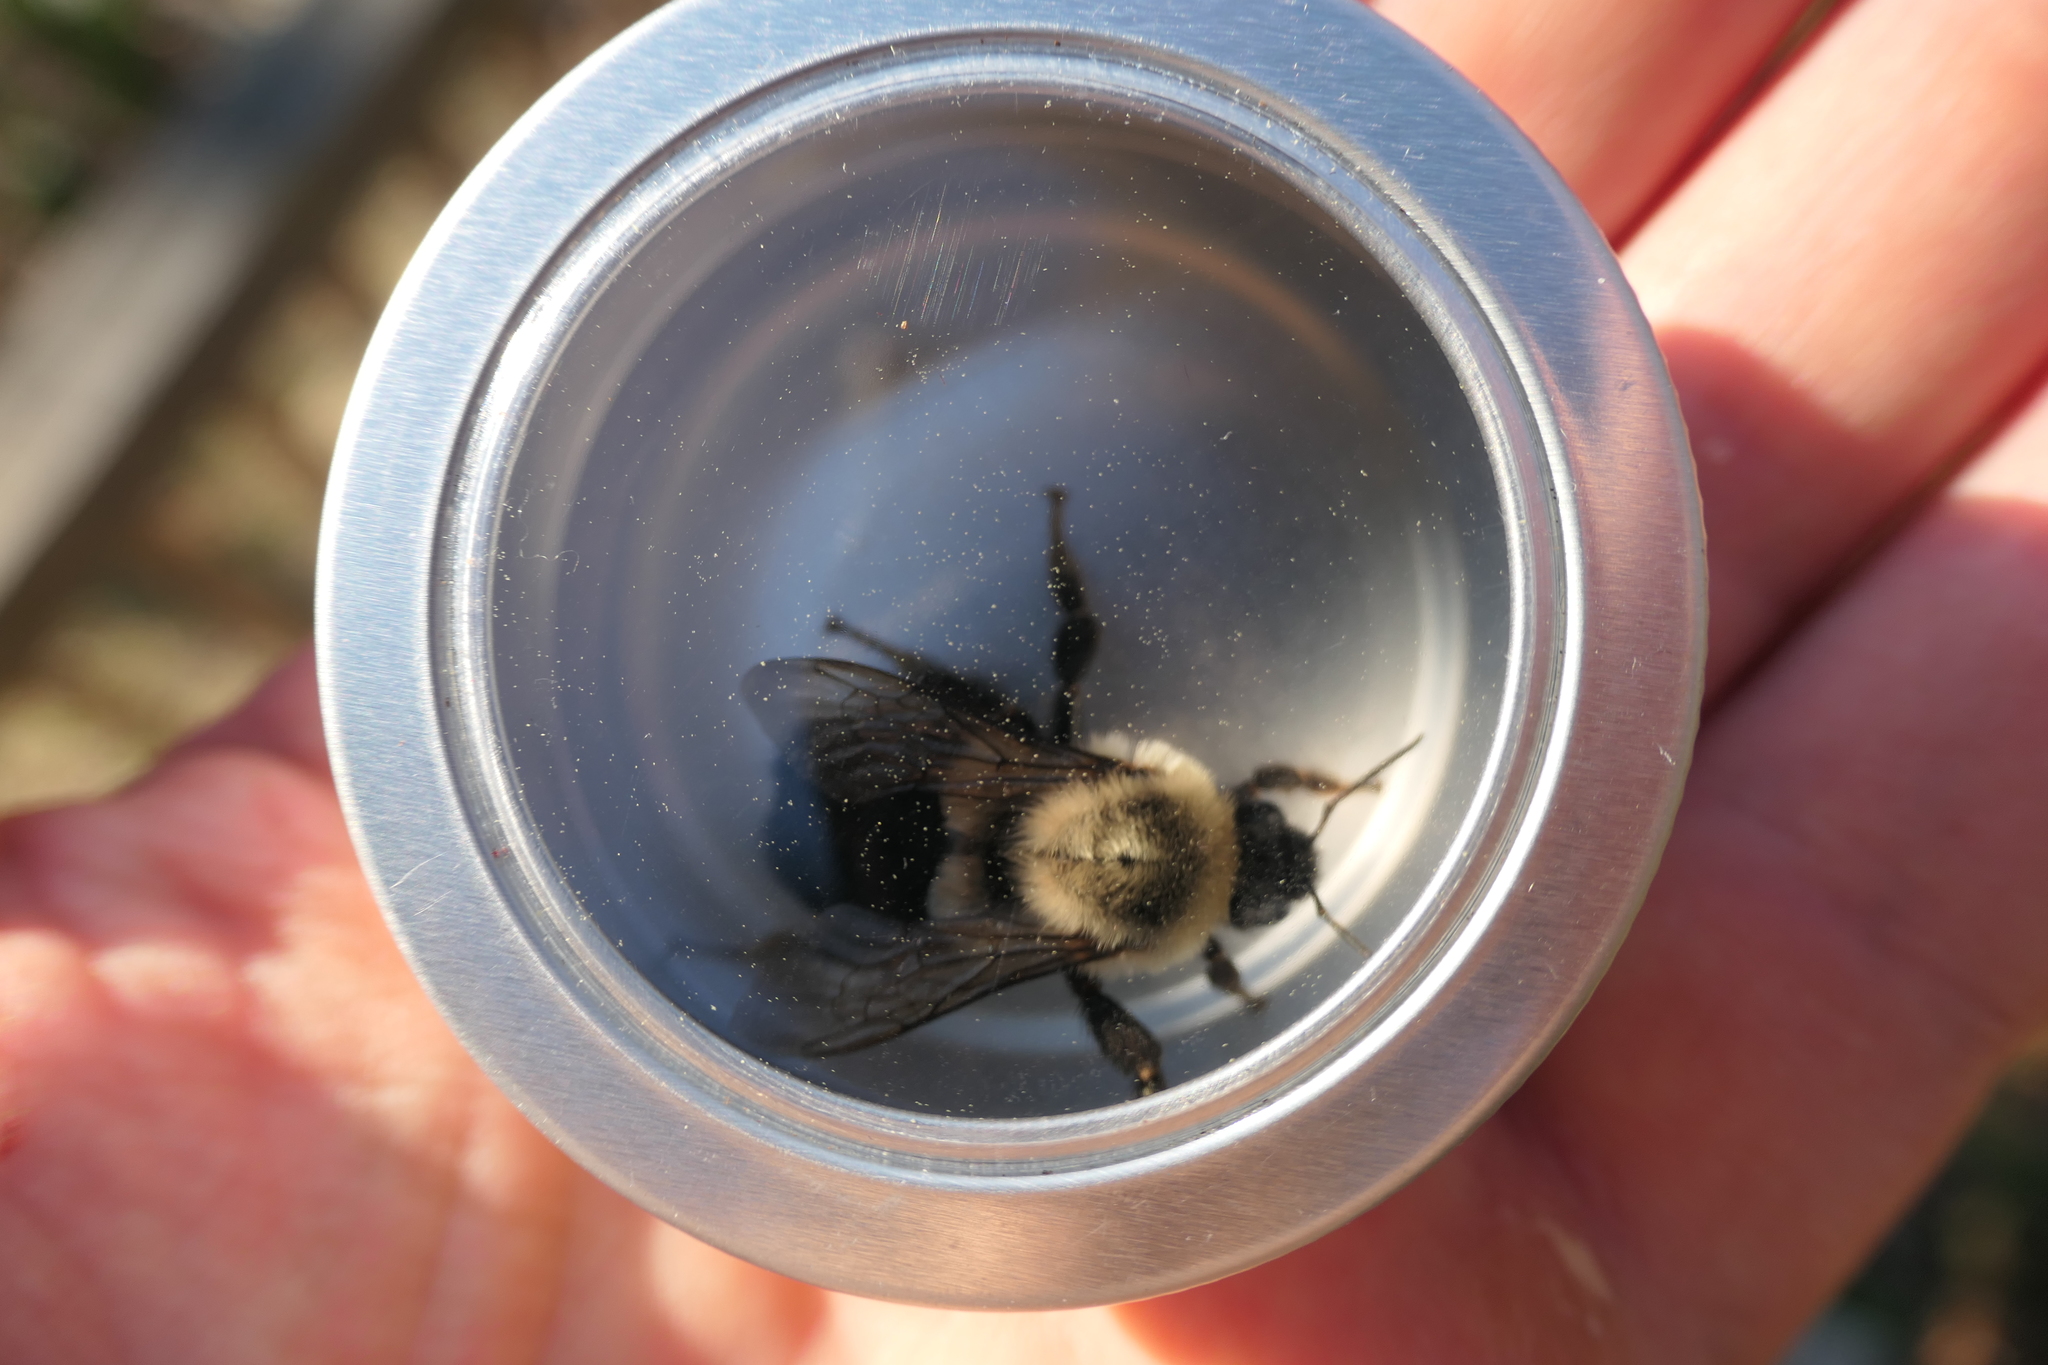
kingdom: Animalia
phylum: Arthropoda
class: Insecta
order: Hymenoptera
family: Apidae
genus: Bombus
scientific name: Bombus impatiens
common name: Common eastern bumble bee
